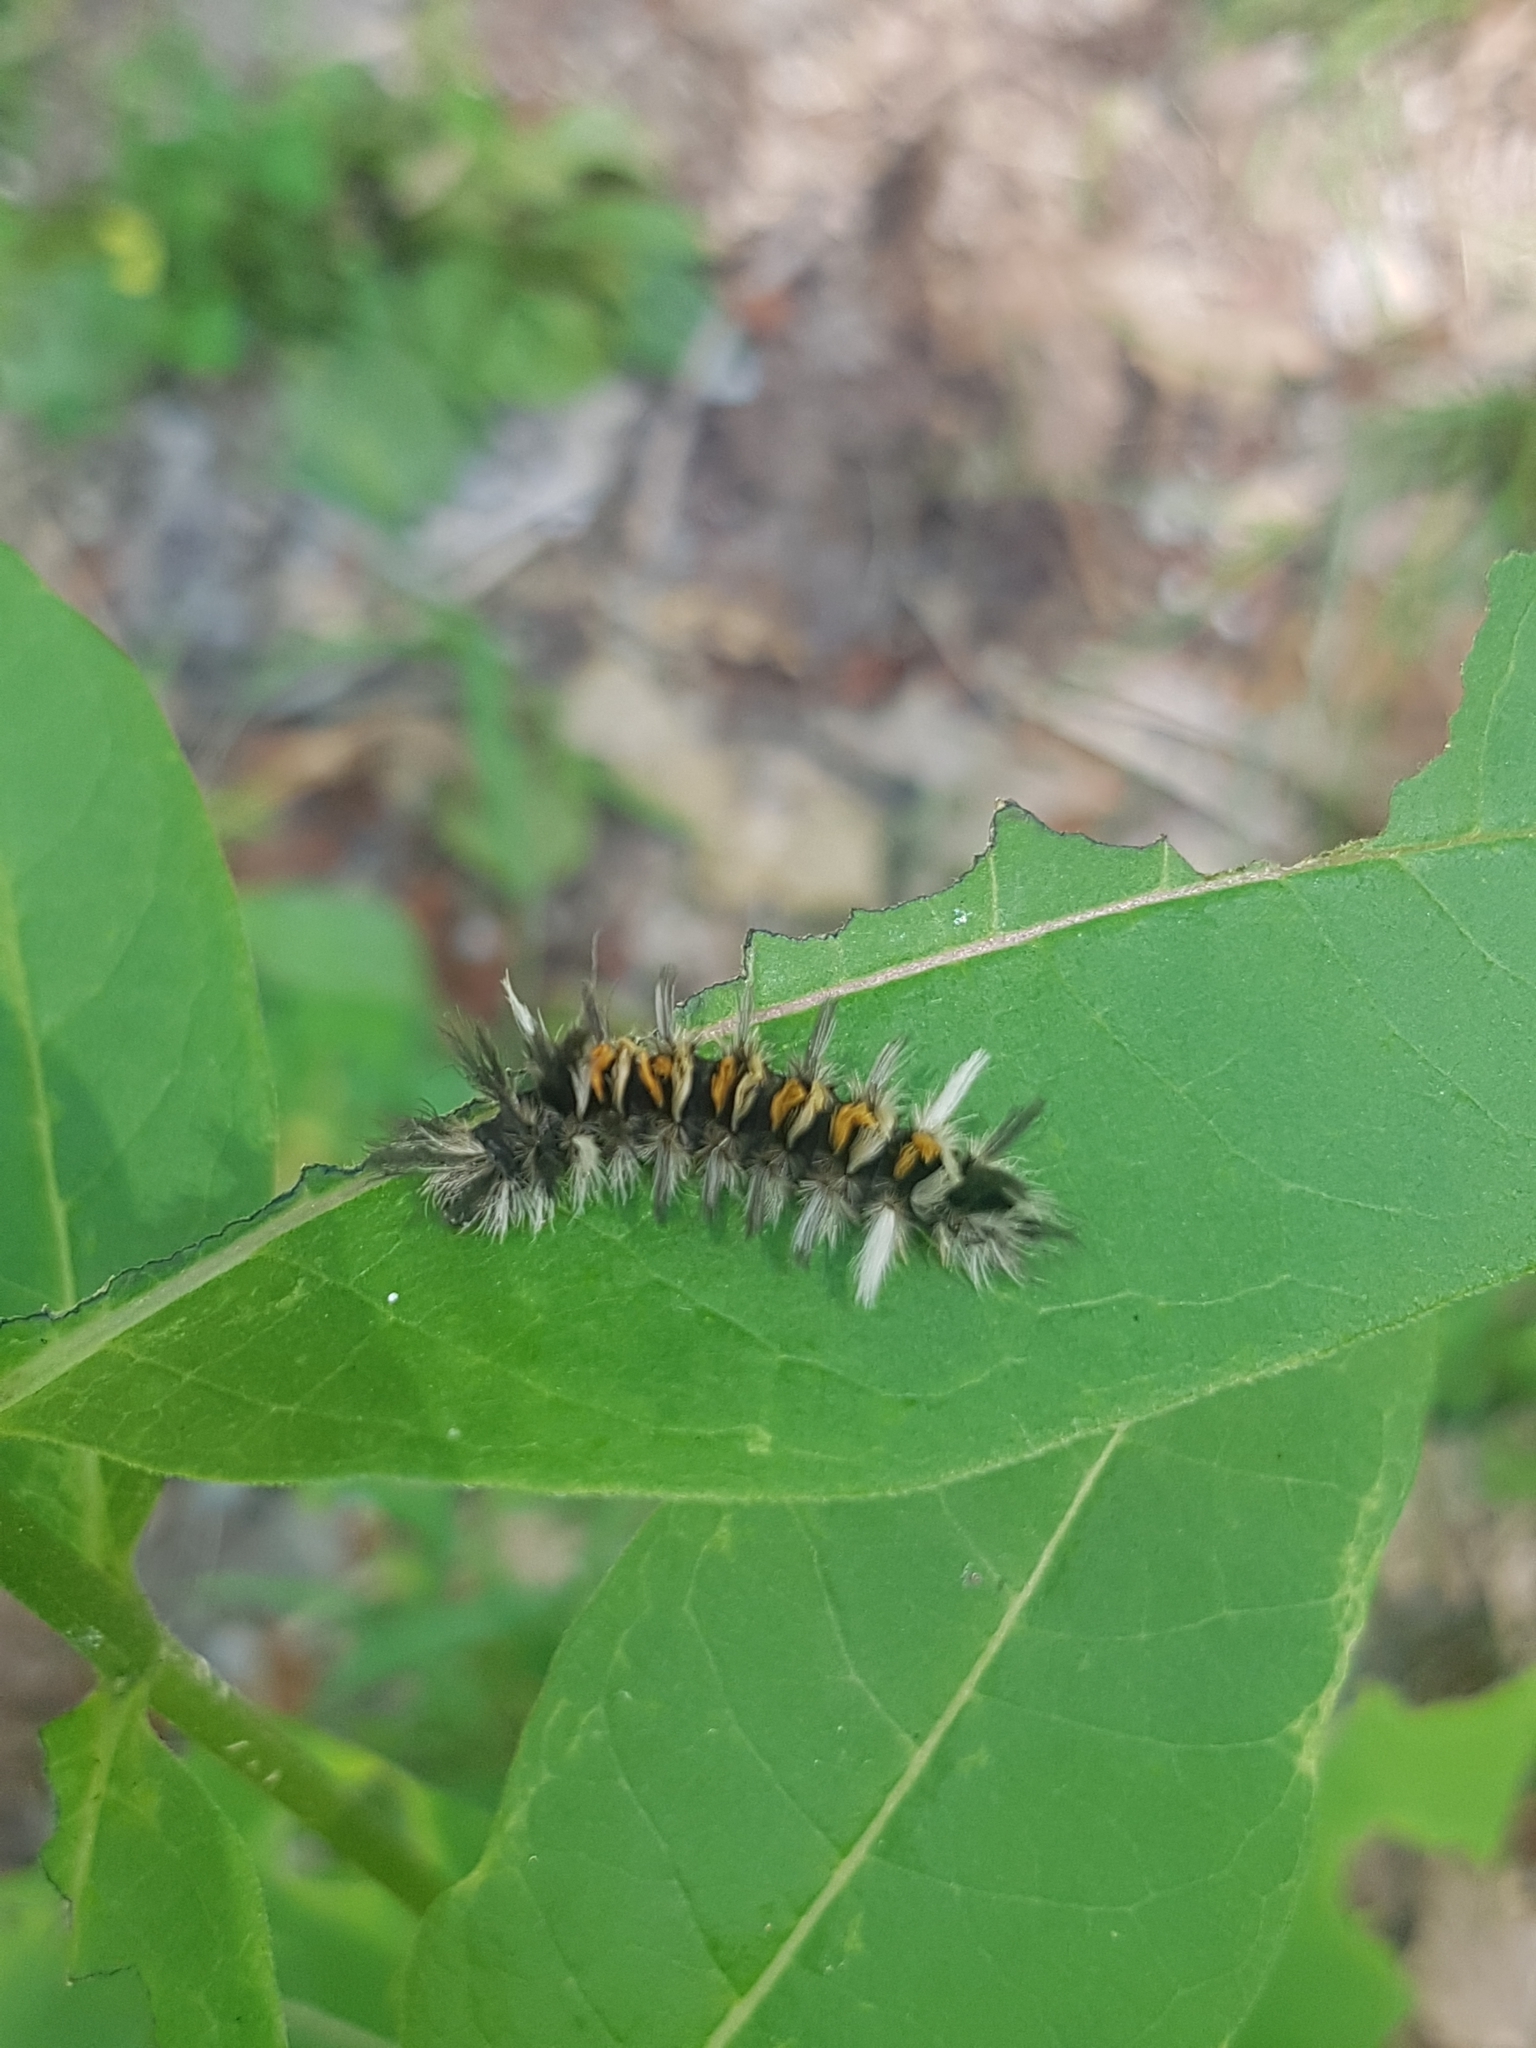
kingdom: Animalia
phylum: Arthropoda
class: Insecta
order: Lepidoptera
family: Erebidae
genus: Euchaetes
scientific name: Euchaetes egle
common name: Milkweed tussock moth
